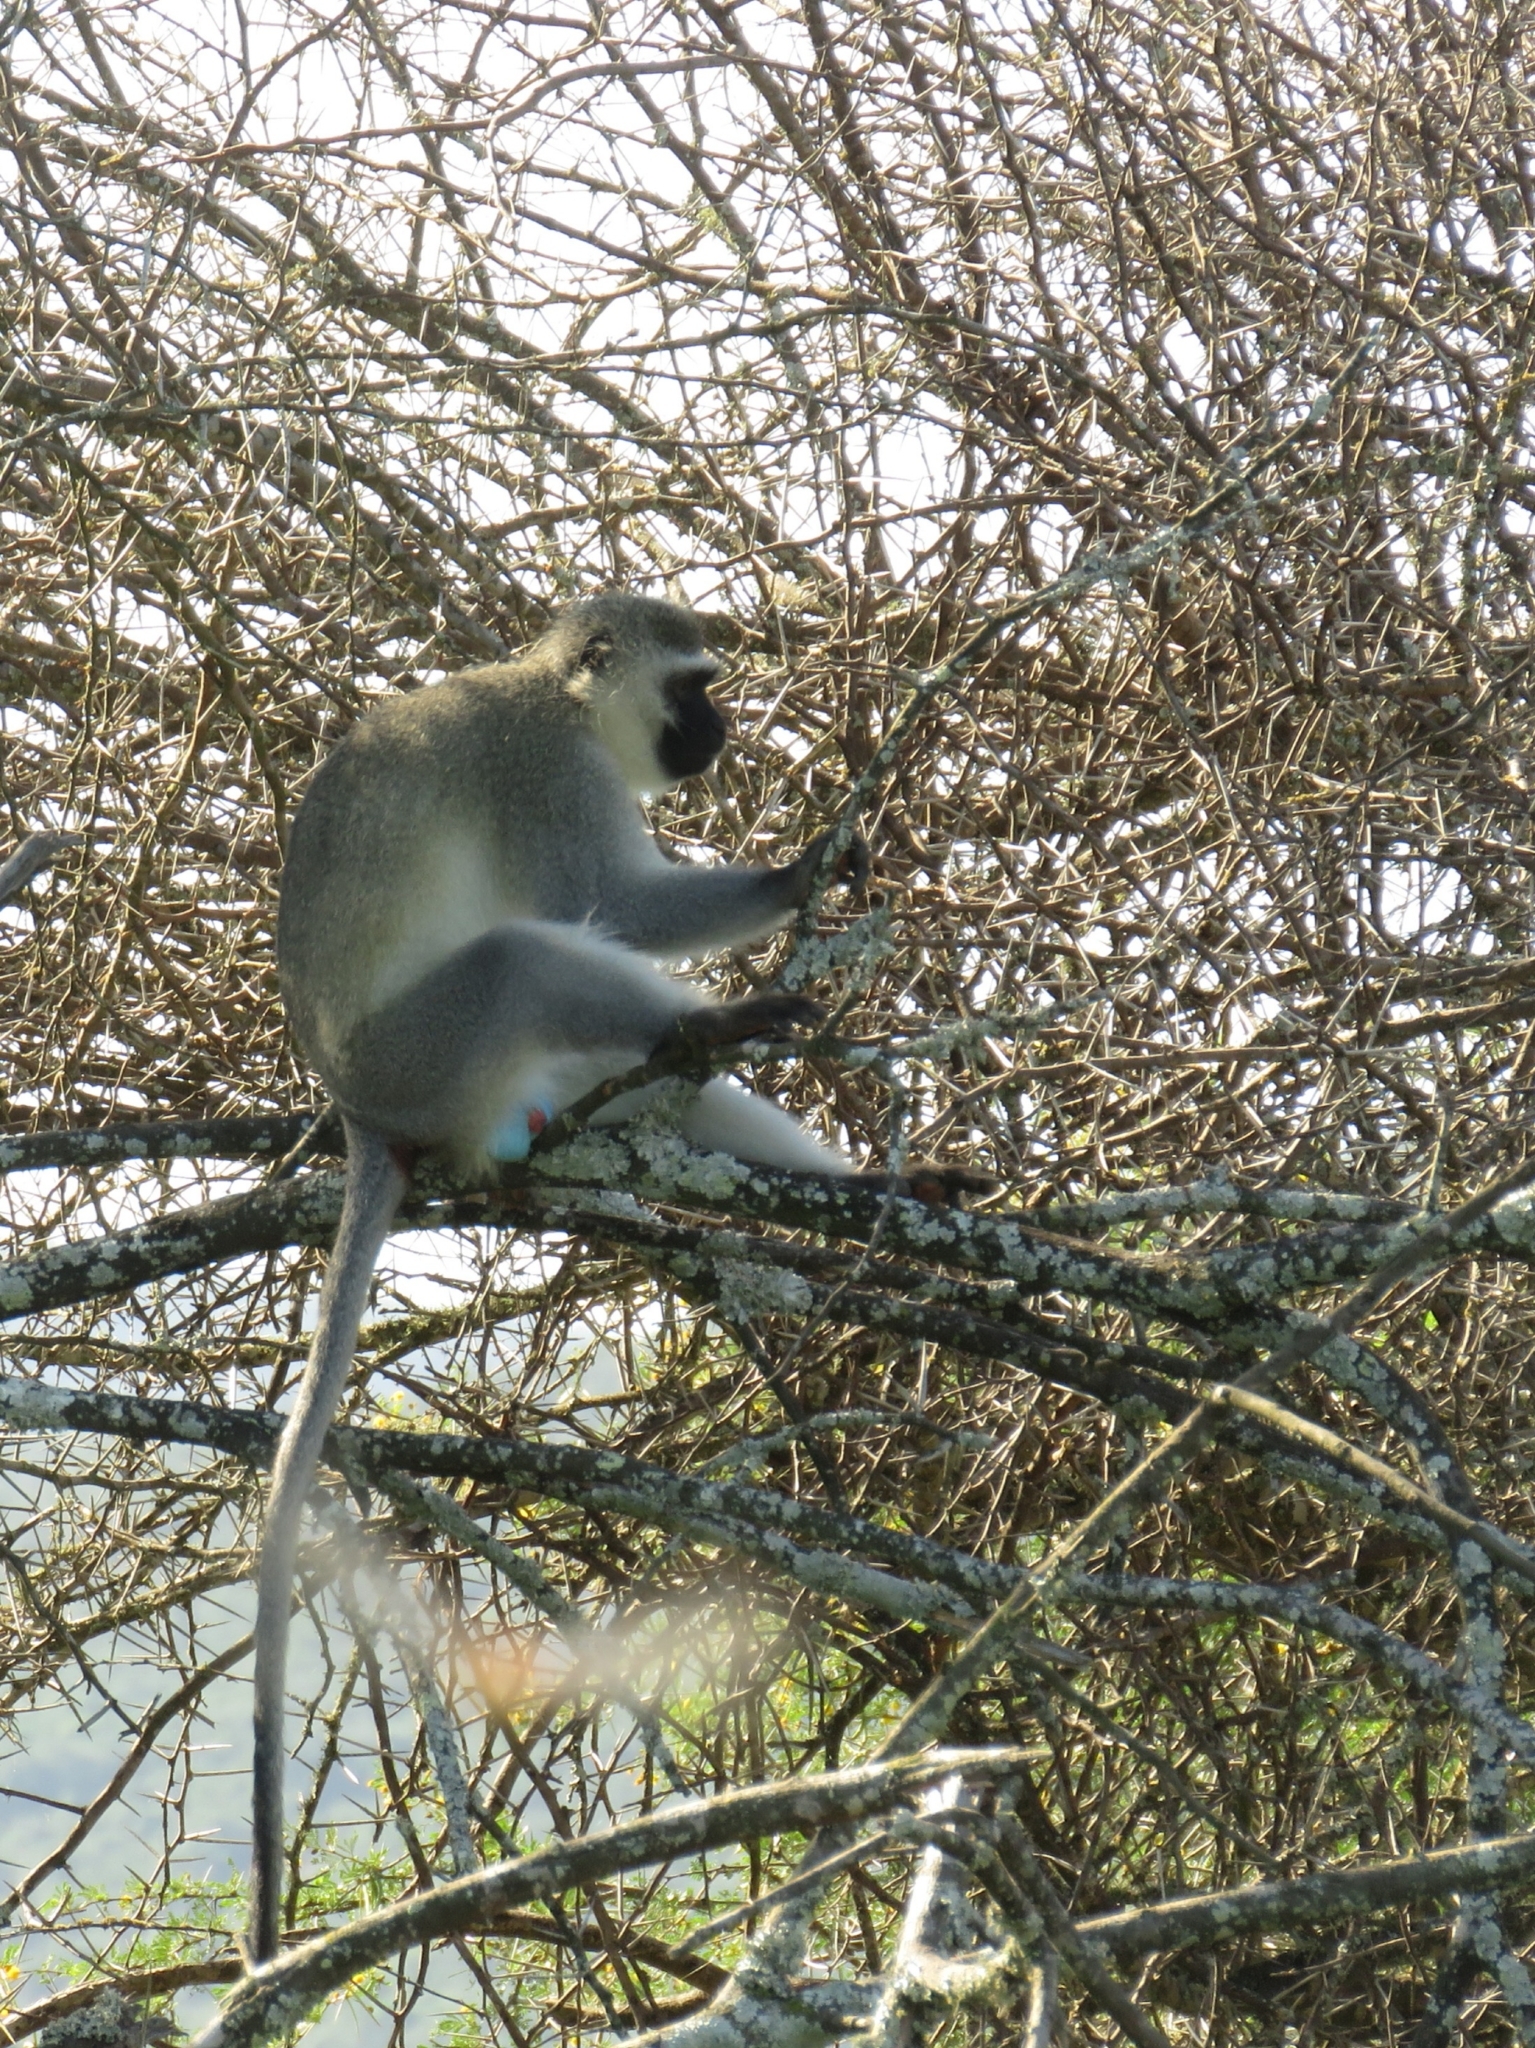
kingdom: Animalia
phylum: Chordata
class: Mammalia
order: Primates
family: Cercopithecidae
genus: Chlorocebus
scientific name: Chlorocebus pygerythrus
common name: Vervet monkey
